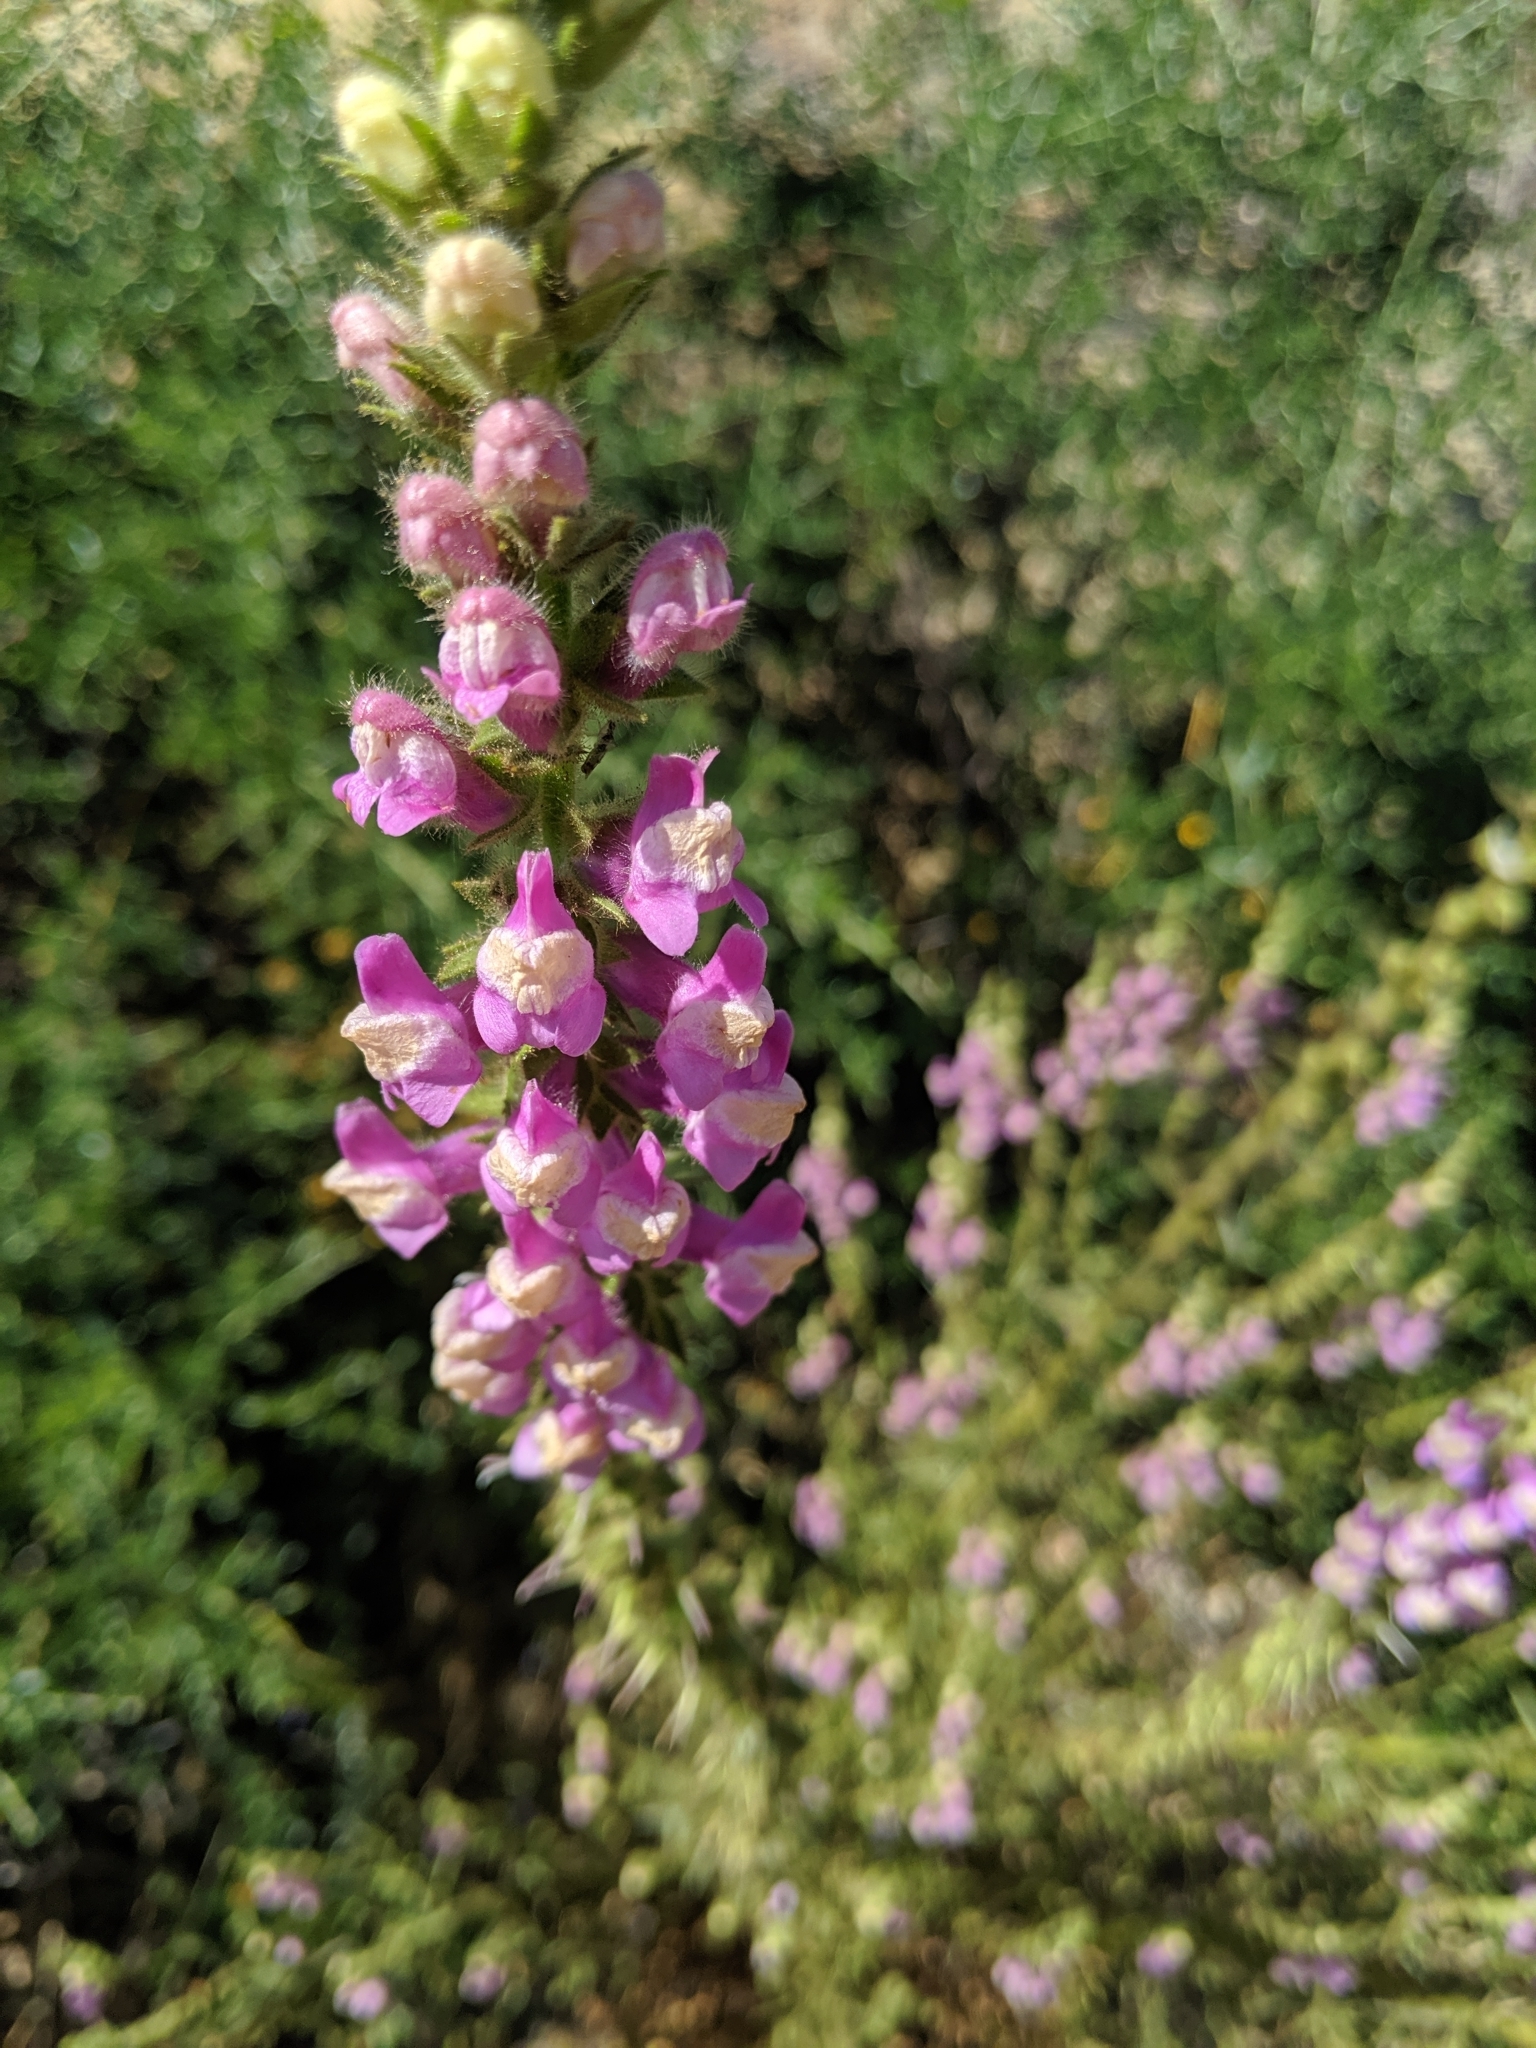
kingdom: Plantae
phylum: Tracheophyta
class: Magnoliopsida
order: Lamiales
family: Plantaginaceae
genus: Sairocarpus
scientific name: Sairocarpus multiflorus
